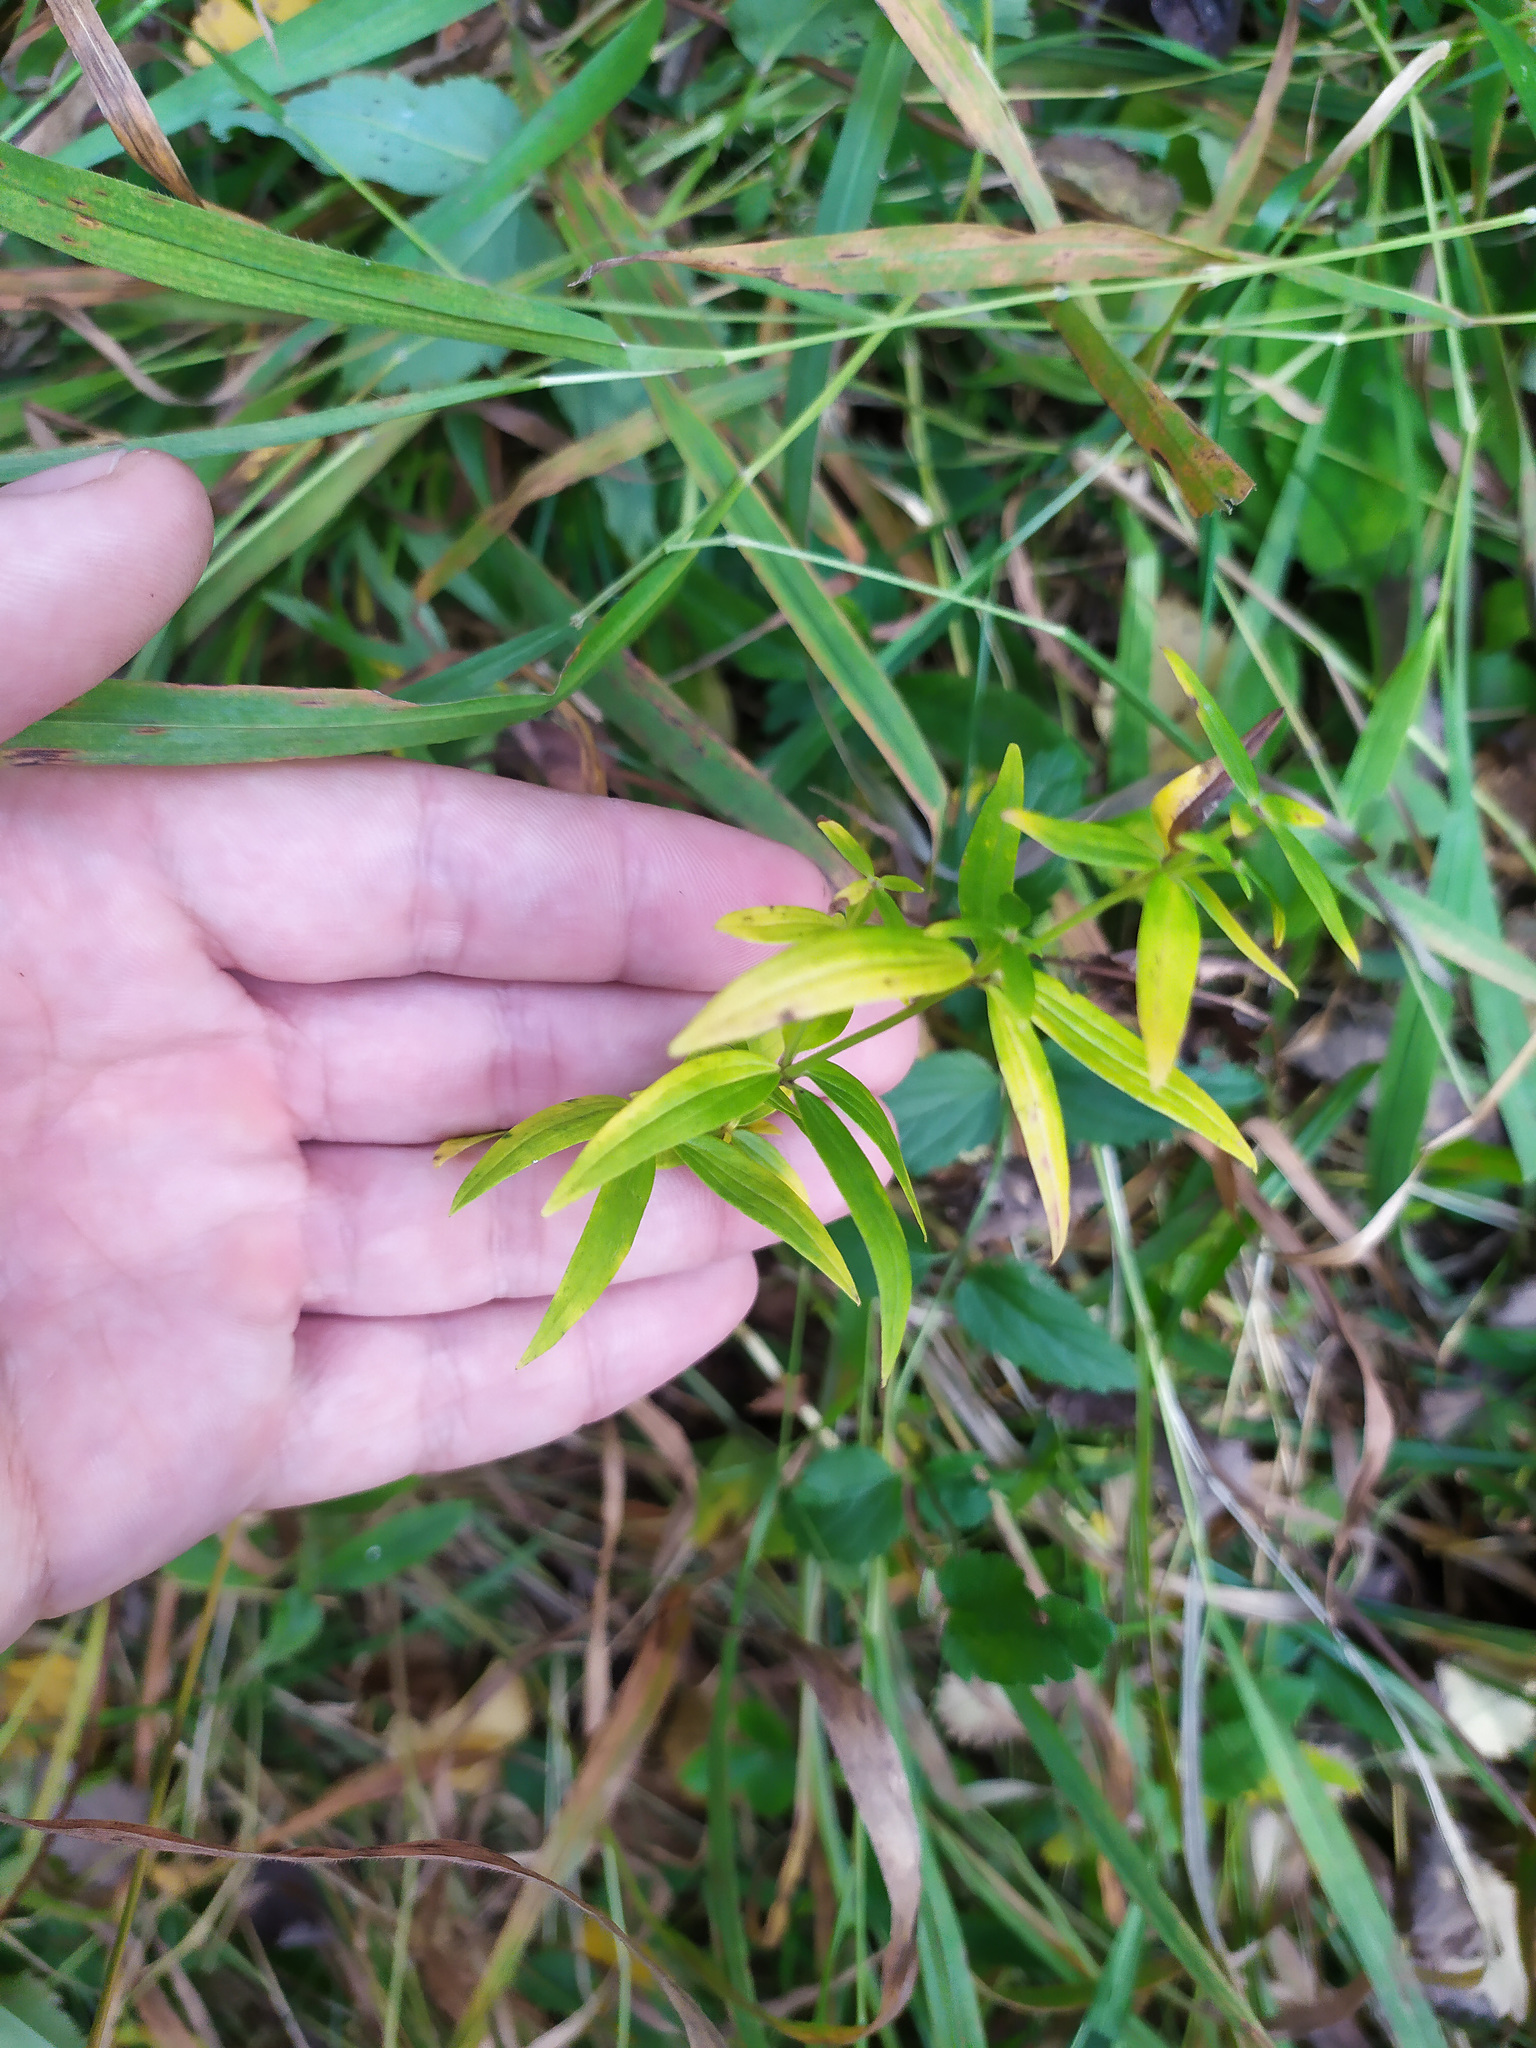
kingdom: Plantae
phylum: Tracheophyta
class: Magnoliopsida
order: Gentianales
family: Rubiaceae
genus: Galium
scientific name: Galium boreale
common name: Northern bedstraw
